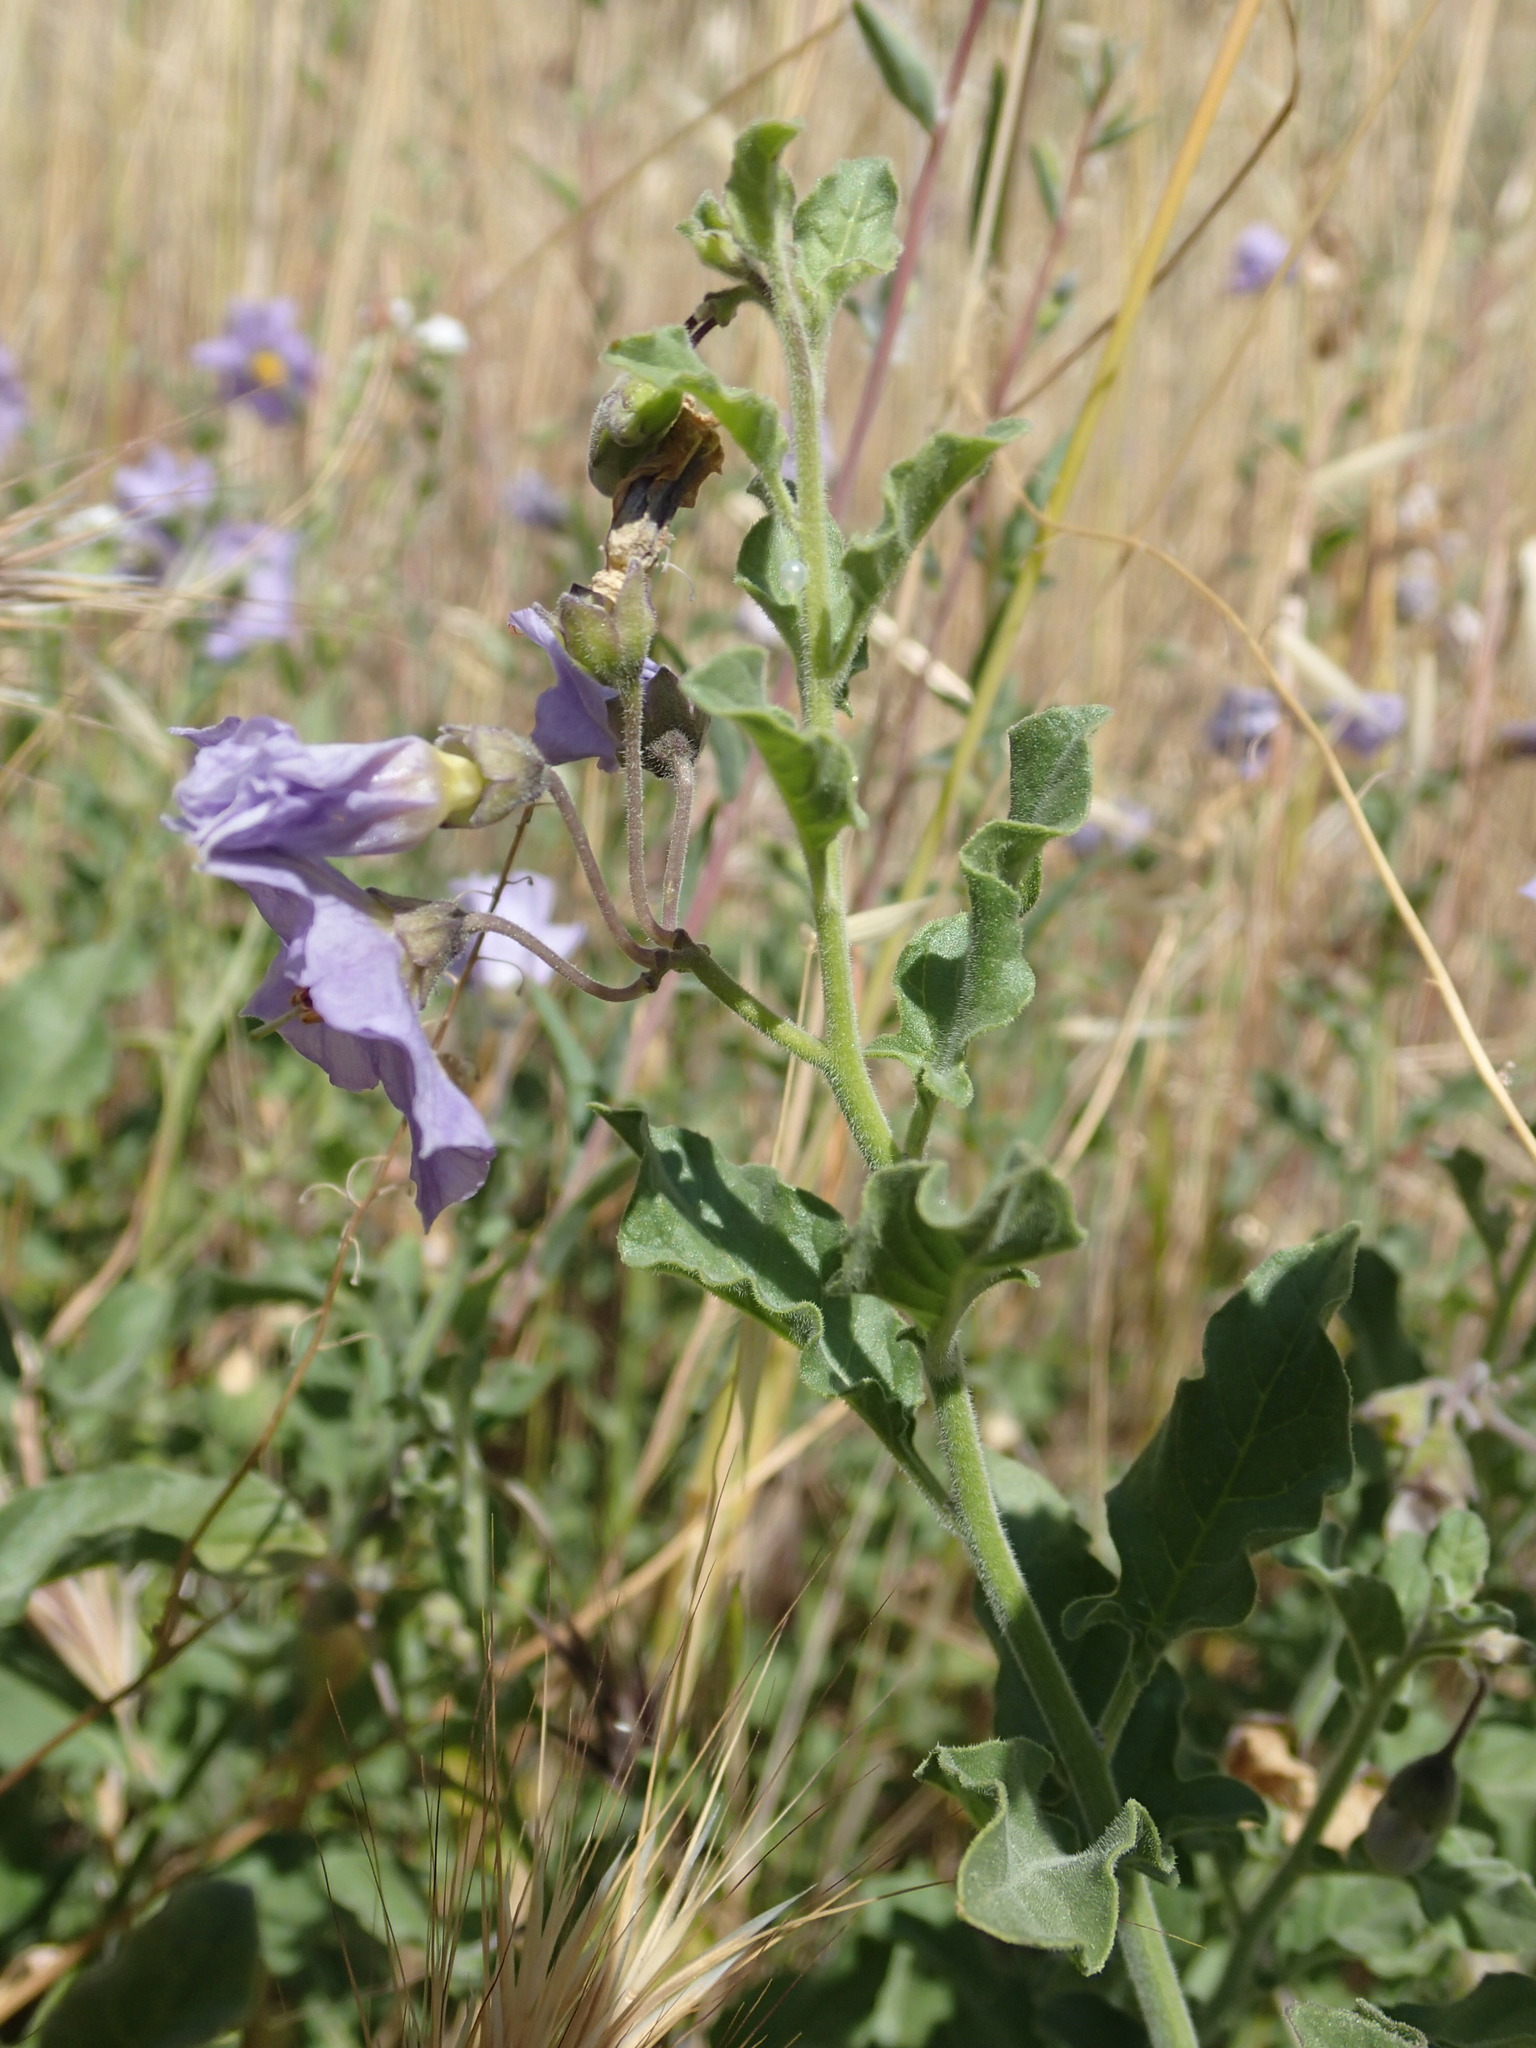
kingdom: Plantae
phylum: Tracheophyta
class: Magnoliopsida
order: Solanales
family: Solanaceae
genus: Solanum
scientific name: Solanum umbelliferum
